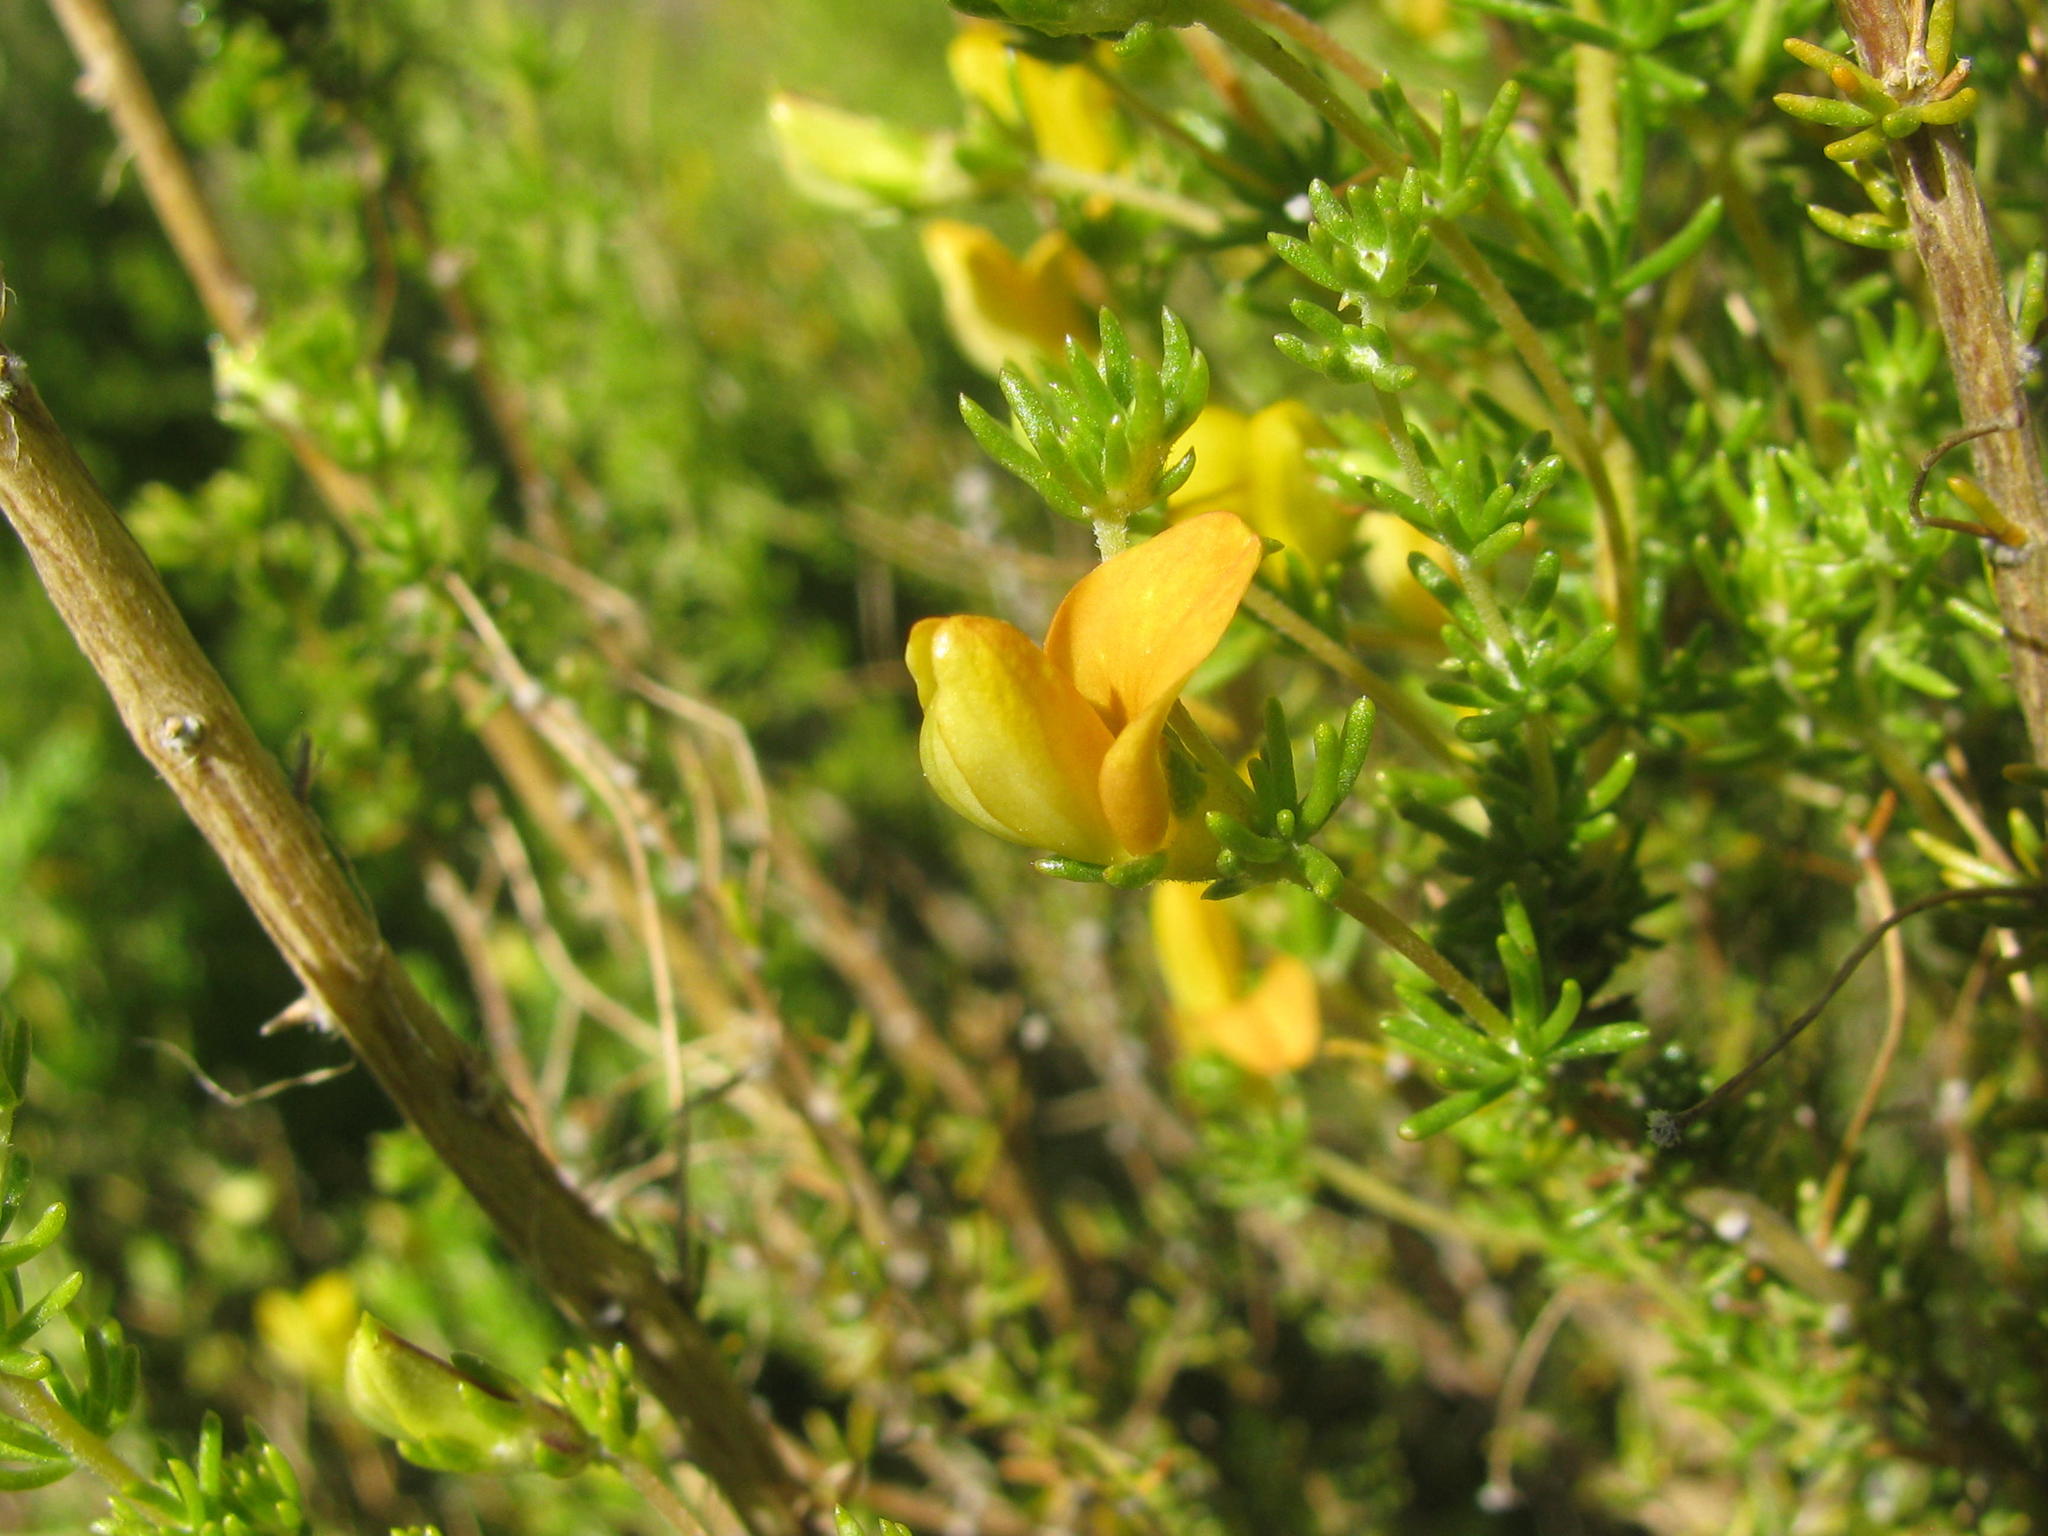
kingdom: Plantae
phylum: Tracheophyta
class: Magnoliopsida
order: Fabales
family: Fabaceae
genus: Aspalathus
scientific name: Aspalathus amoena
